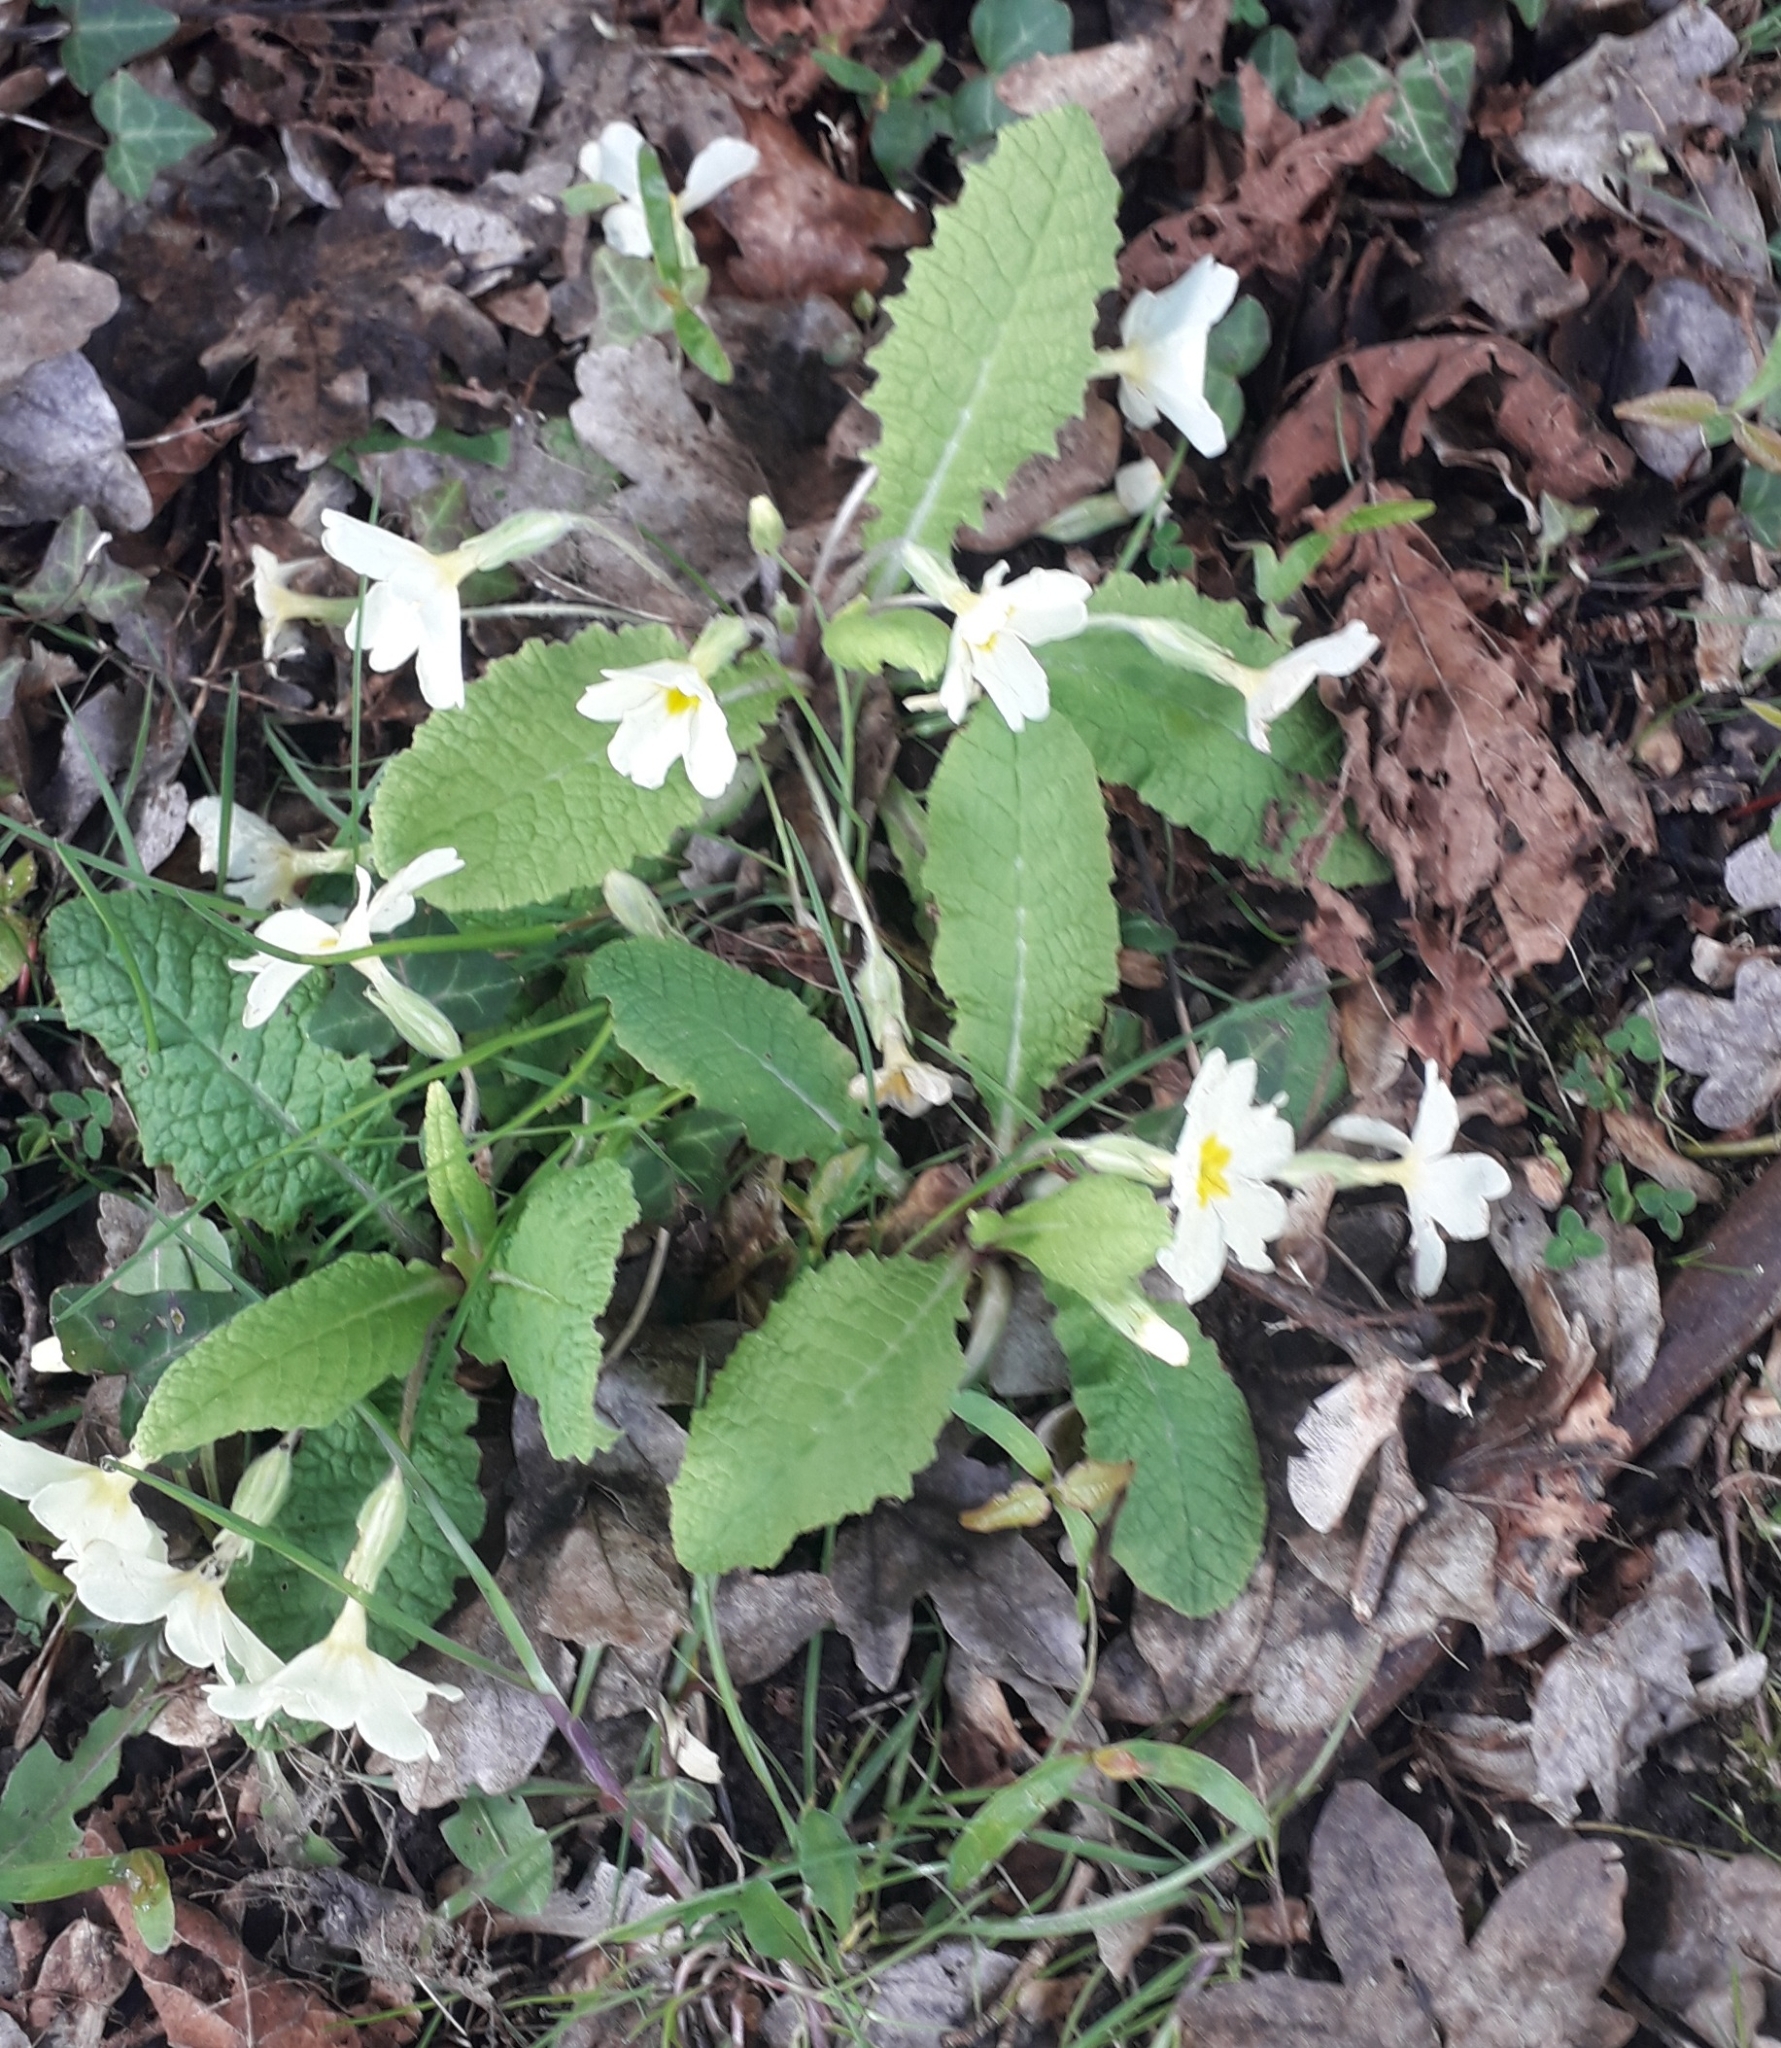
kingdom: Plantae
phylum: Tracheophyta
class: Magnoliopsida
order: Ericales
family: Primulaceae
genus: Primula
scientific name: Primula vulgaris
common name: Primrose
